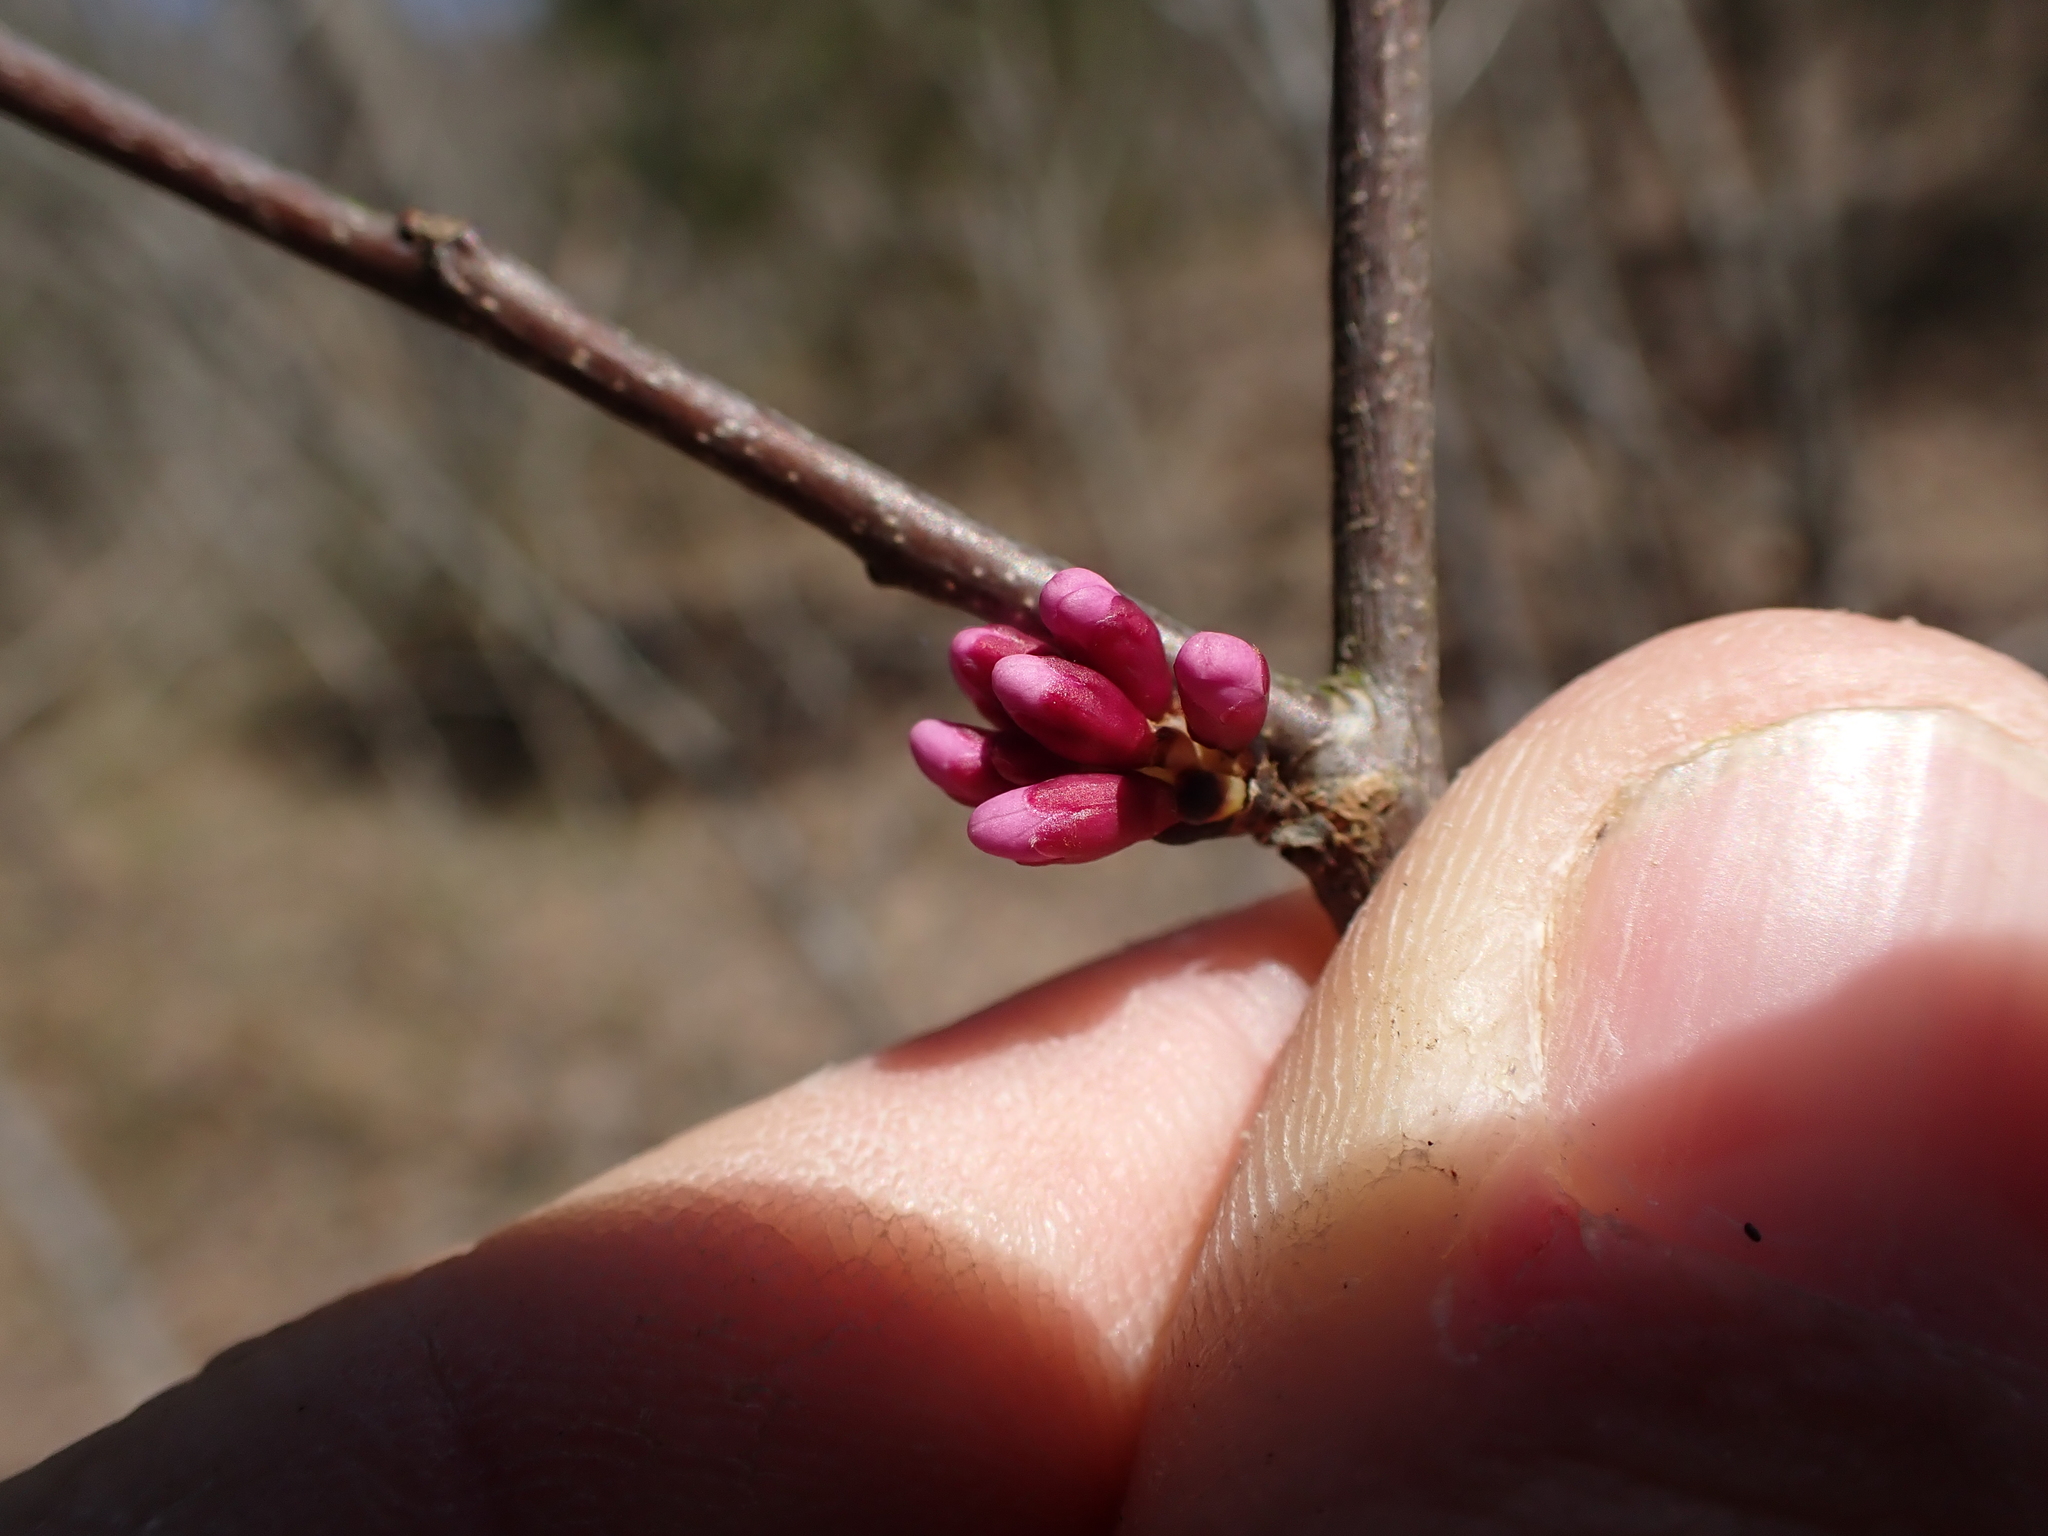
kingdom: Plantae
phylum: Tracheophyta
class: Magnoliopsida
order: Fabales
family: Fabaceae
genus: Cercis
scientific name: Cercis canadensis
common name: Eastern redbud
